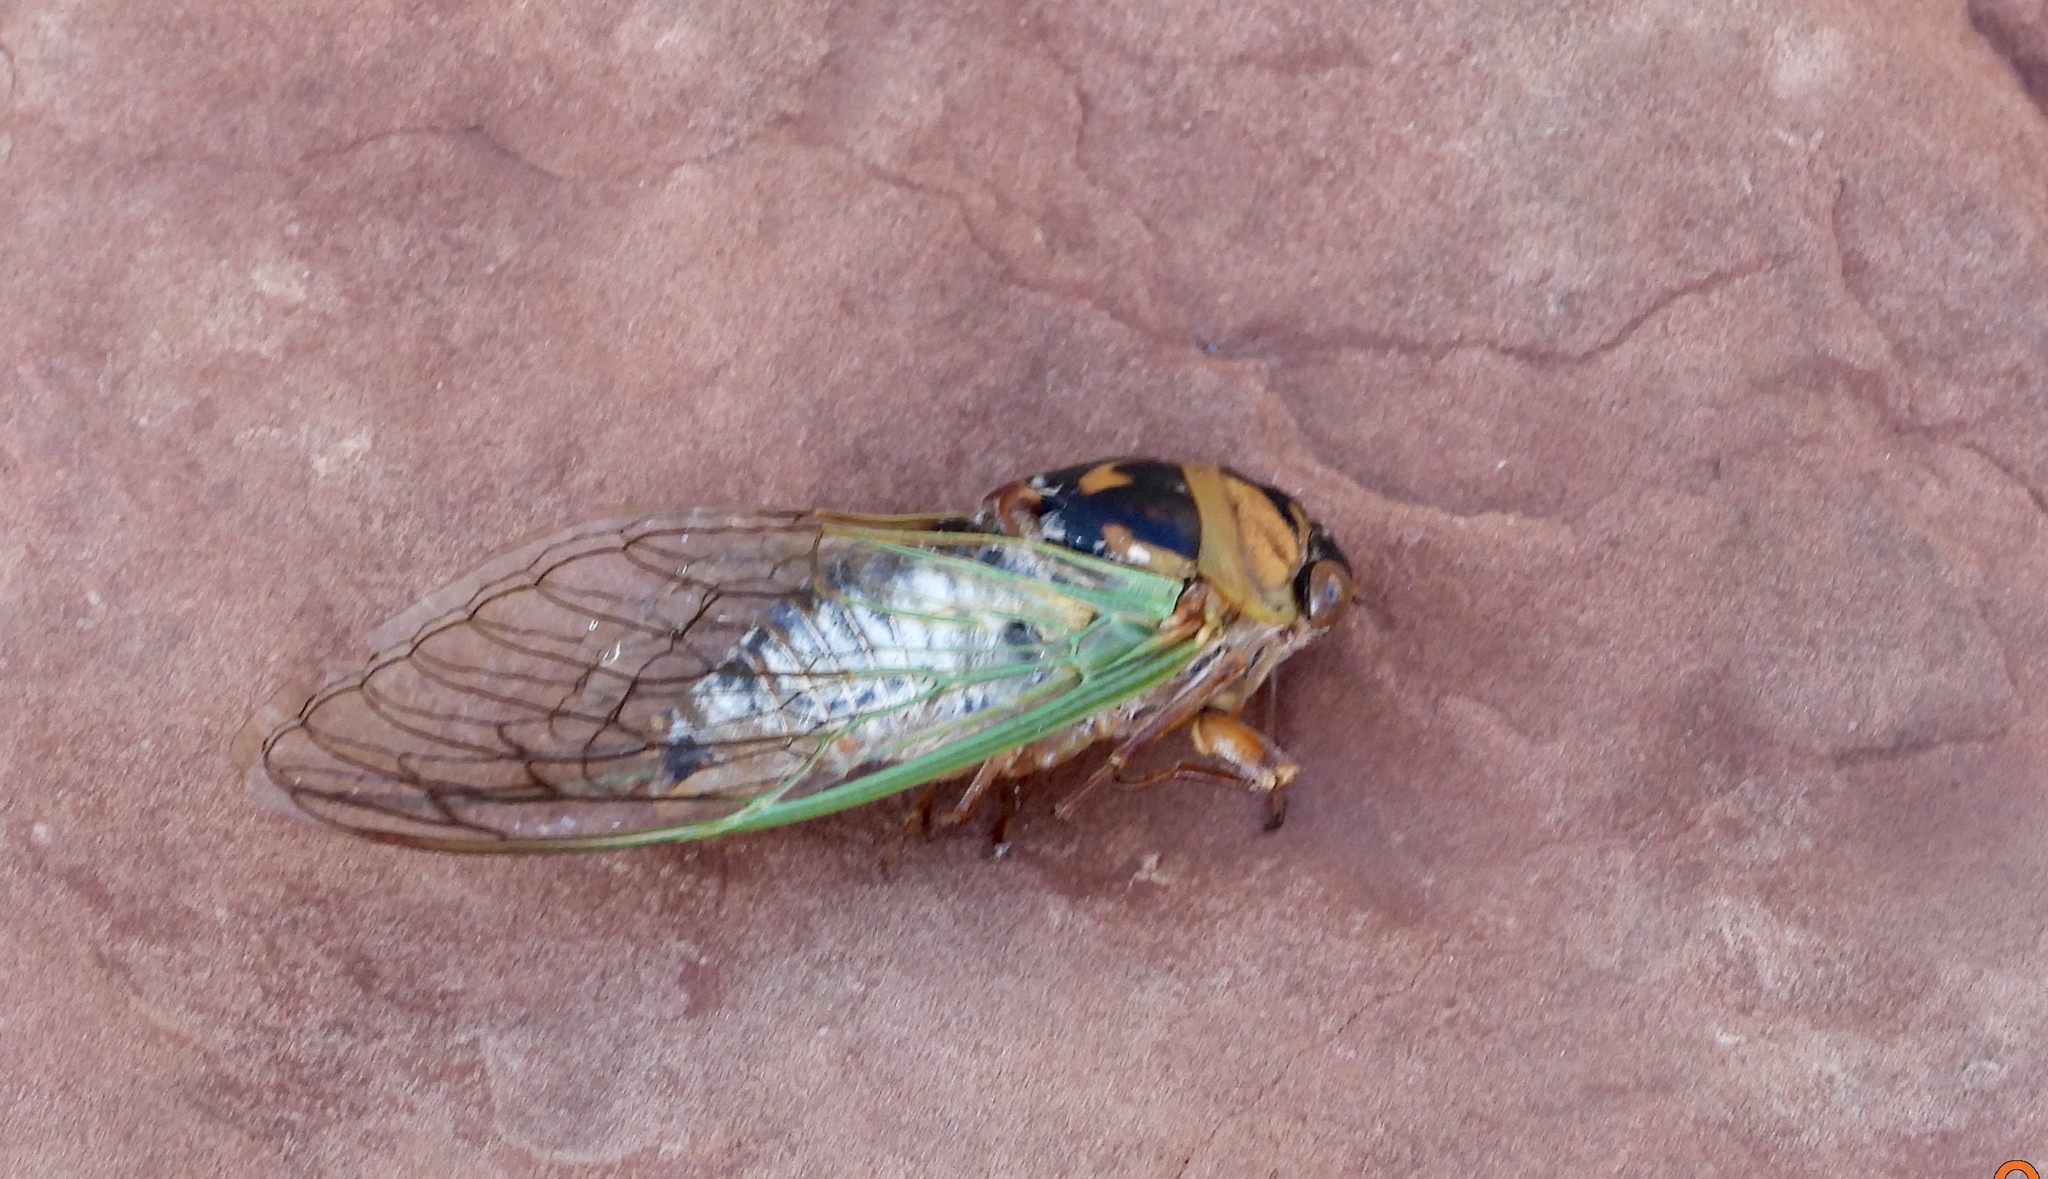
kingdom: Animalia
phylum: Arthropoda
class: Insecta
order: Hemiptera
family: Cicadidae
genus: Megatibicen
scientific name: Megatibicen cultriformis
